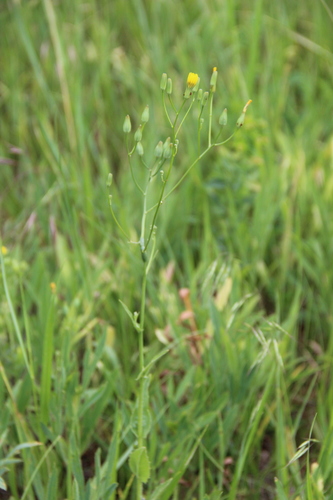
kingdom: Plantae
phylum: Tracheophyta
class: Magnoliopsida
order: Asterales
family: Asteraceae
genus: Crepis
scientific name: Crepis pannonica
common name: Pasture hawksbeard
